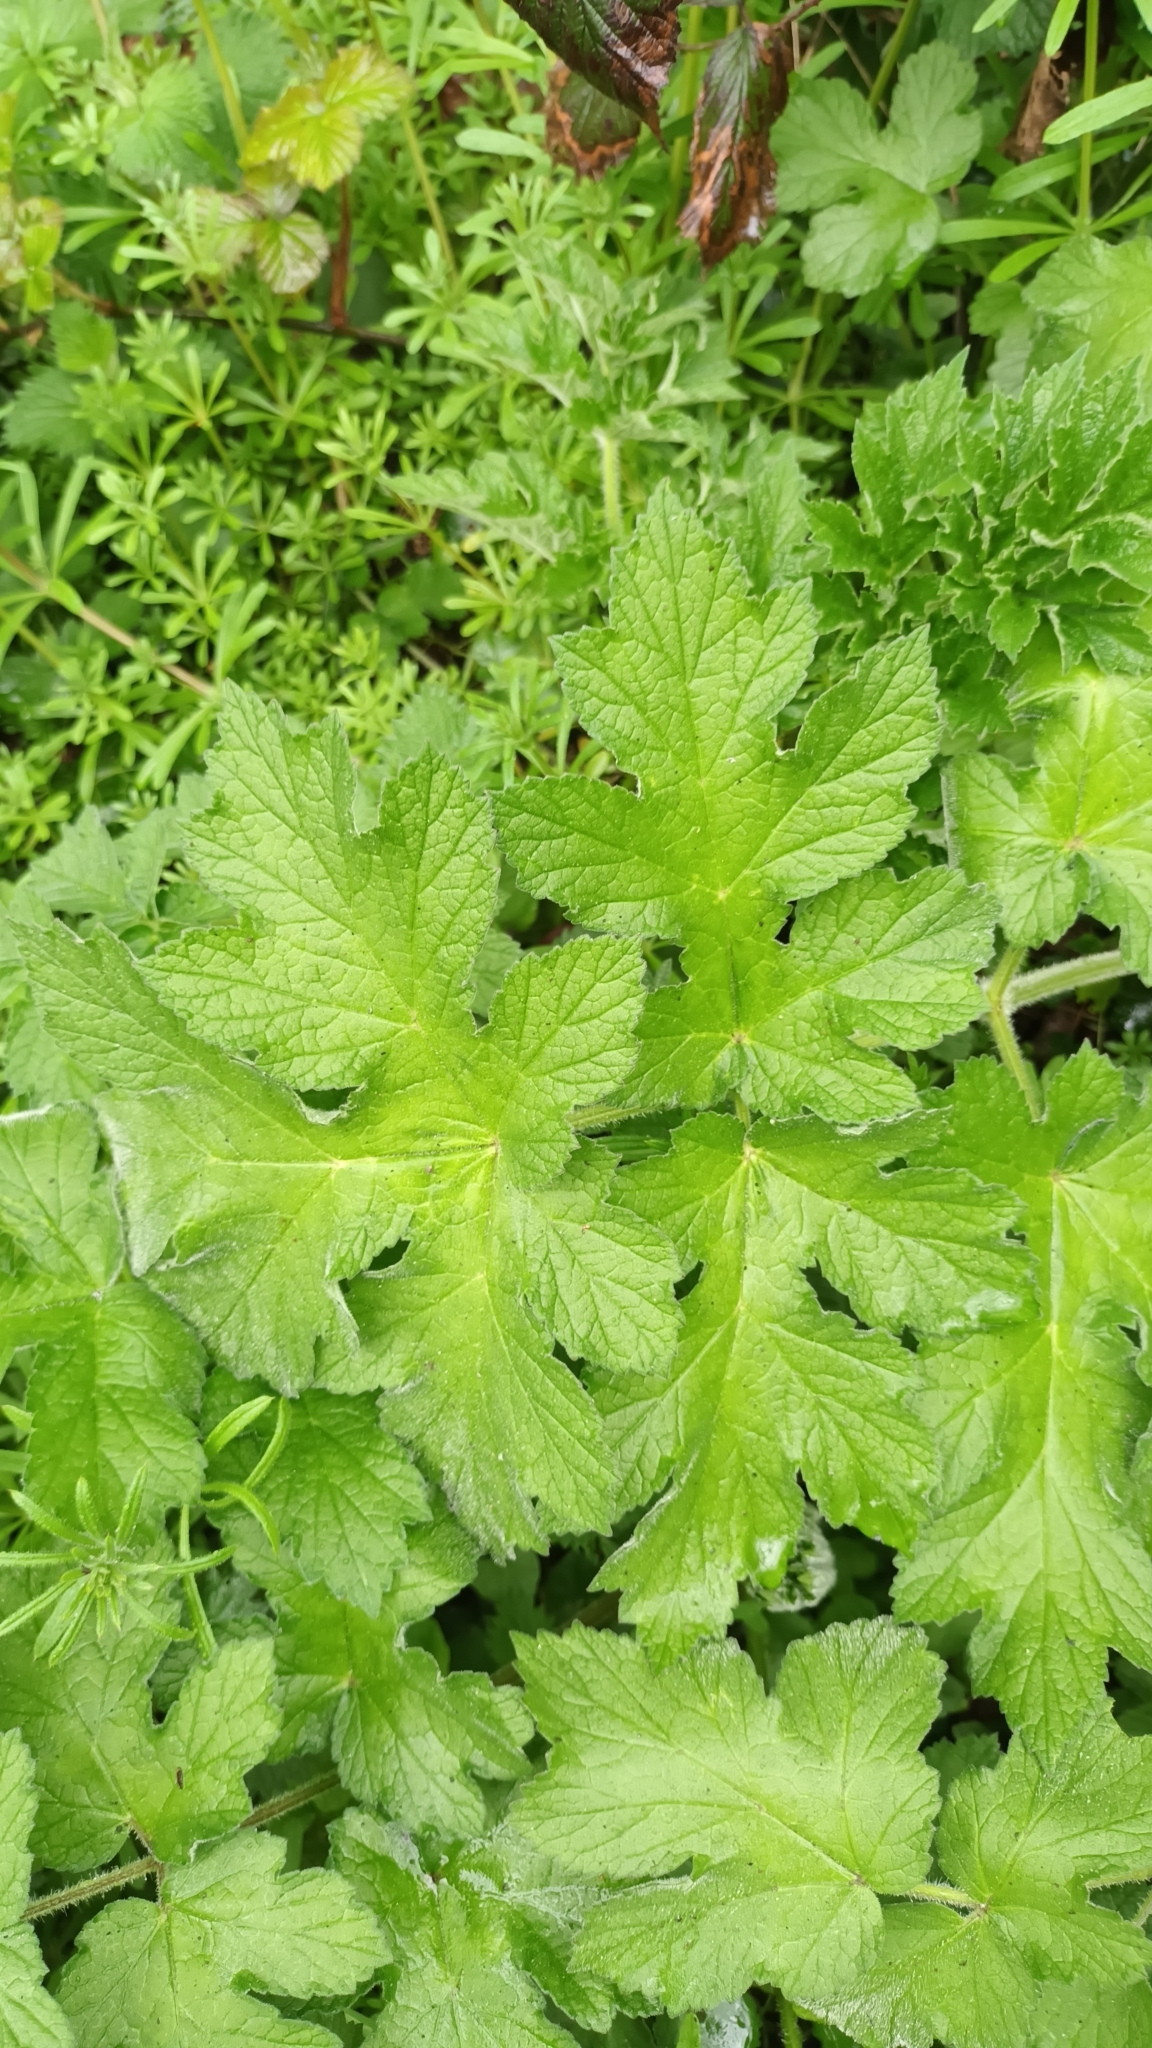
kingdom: Plantae
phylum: Tracheophyta
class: Magnoliopsida
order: Apiales
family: Apiaceae
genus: Heracleum
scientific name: Heracleum sphondylium
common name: Hogweed
